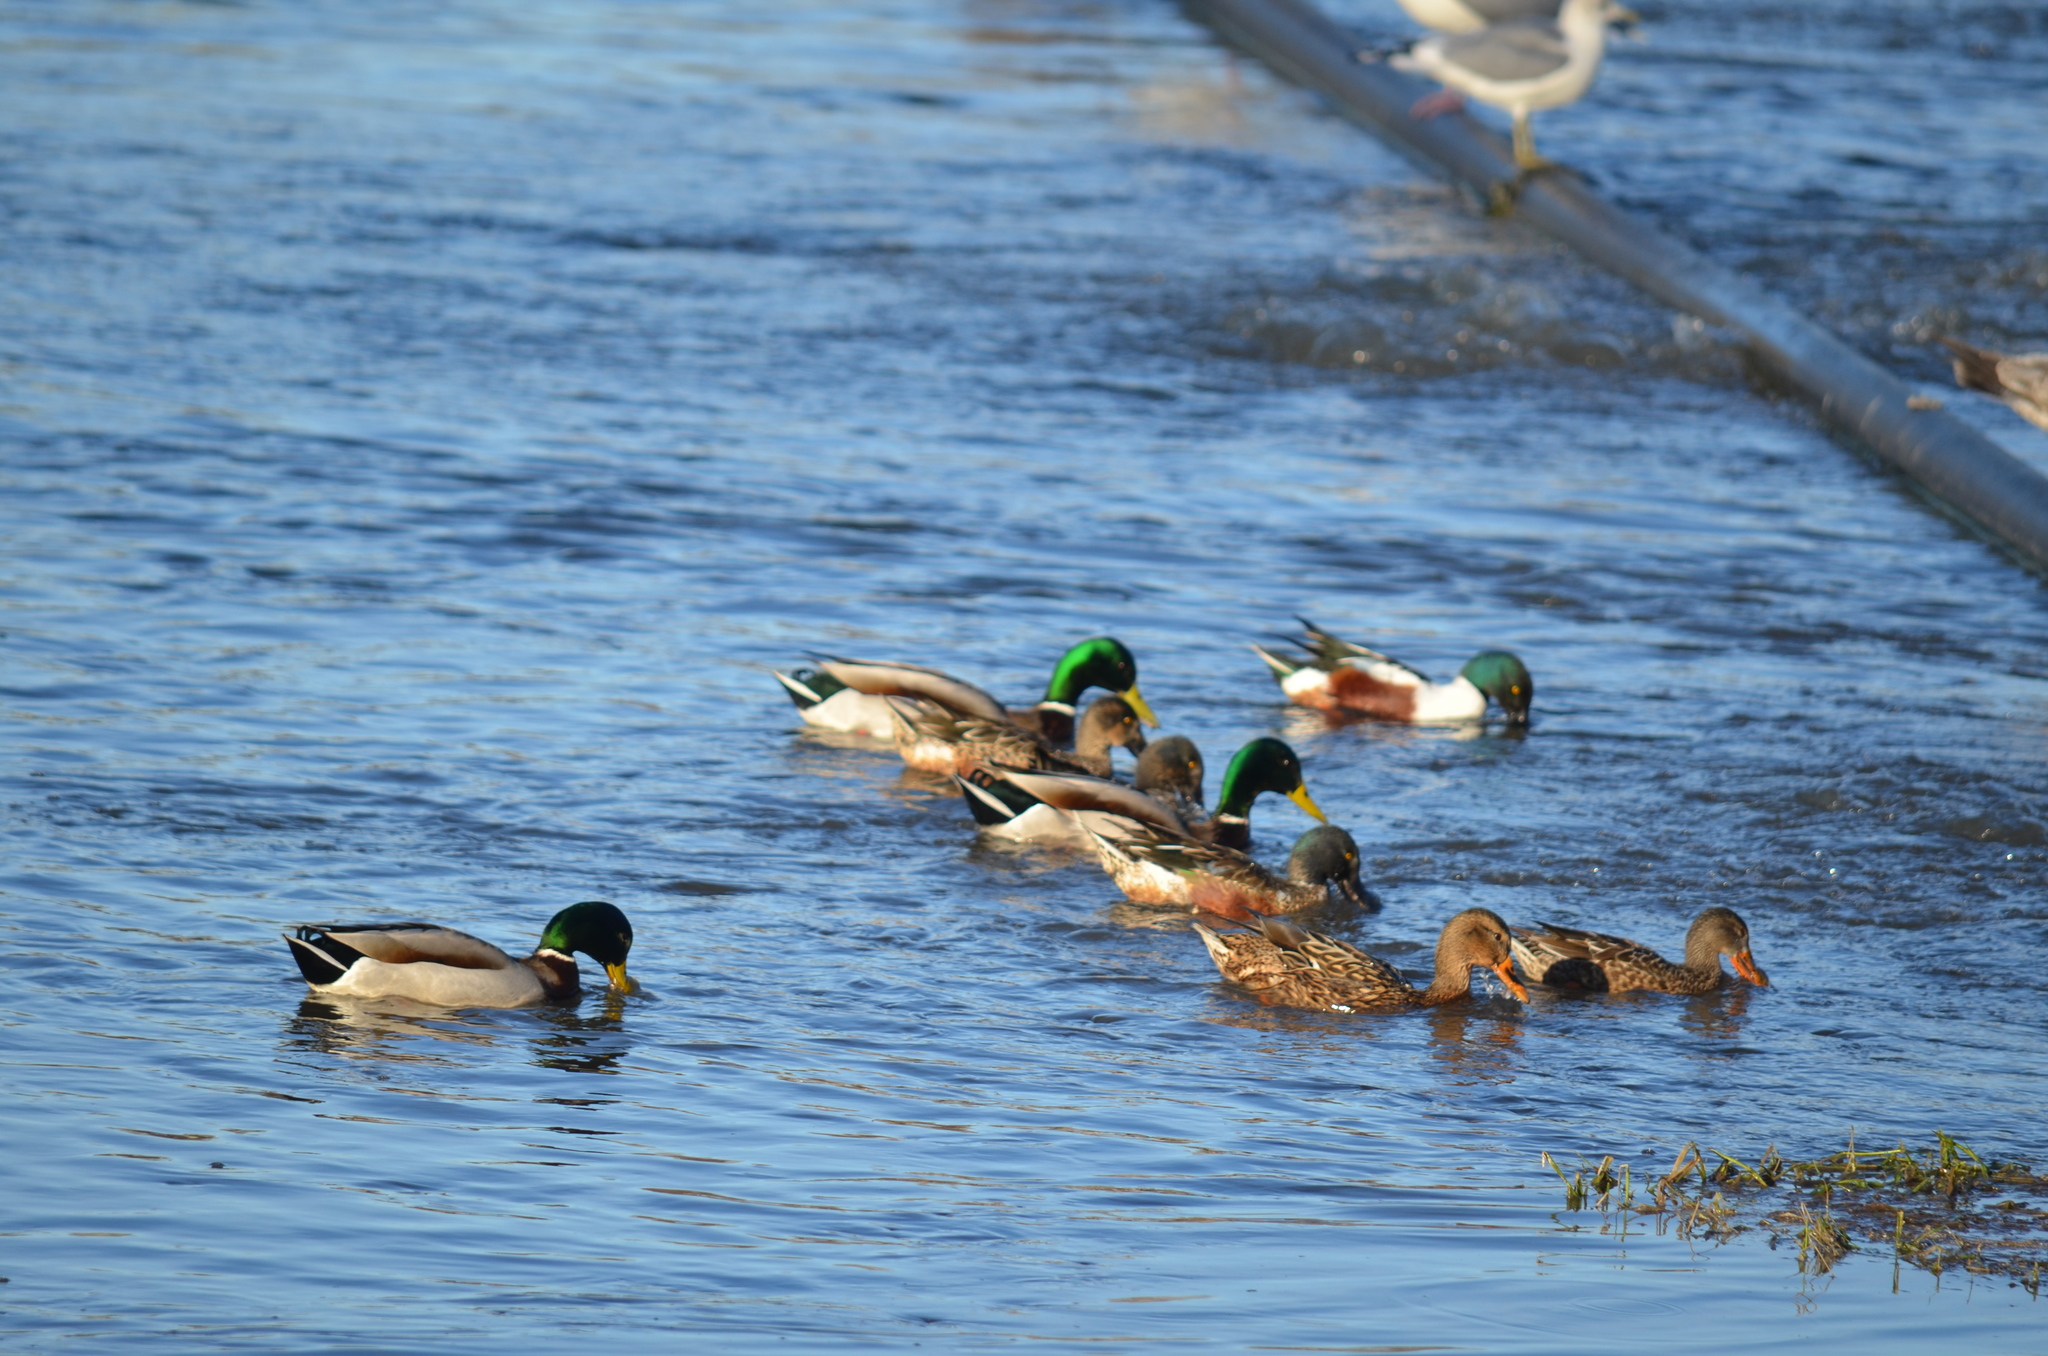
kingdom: Animalia
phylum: Chordata
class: Aves
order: Anseriformes
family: Anatidae
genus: Anas
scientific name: Anas platyrhynchos
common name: Mallard
